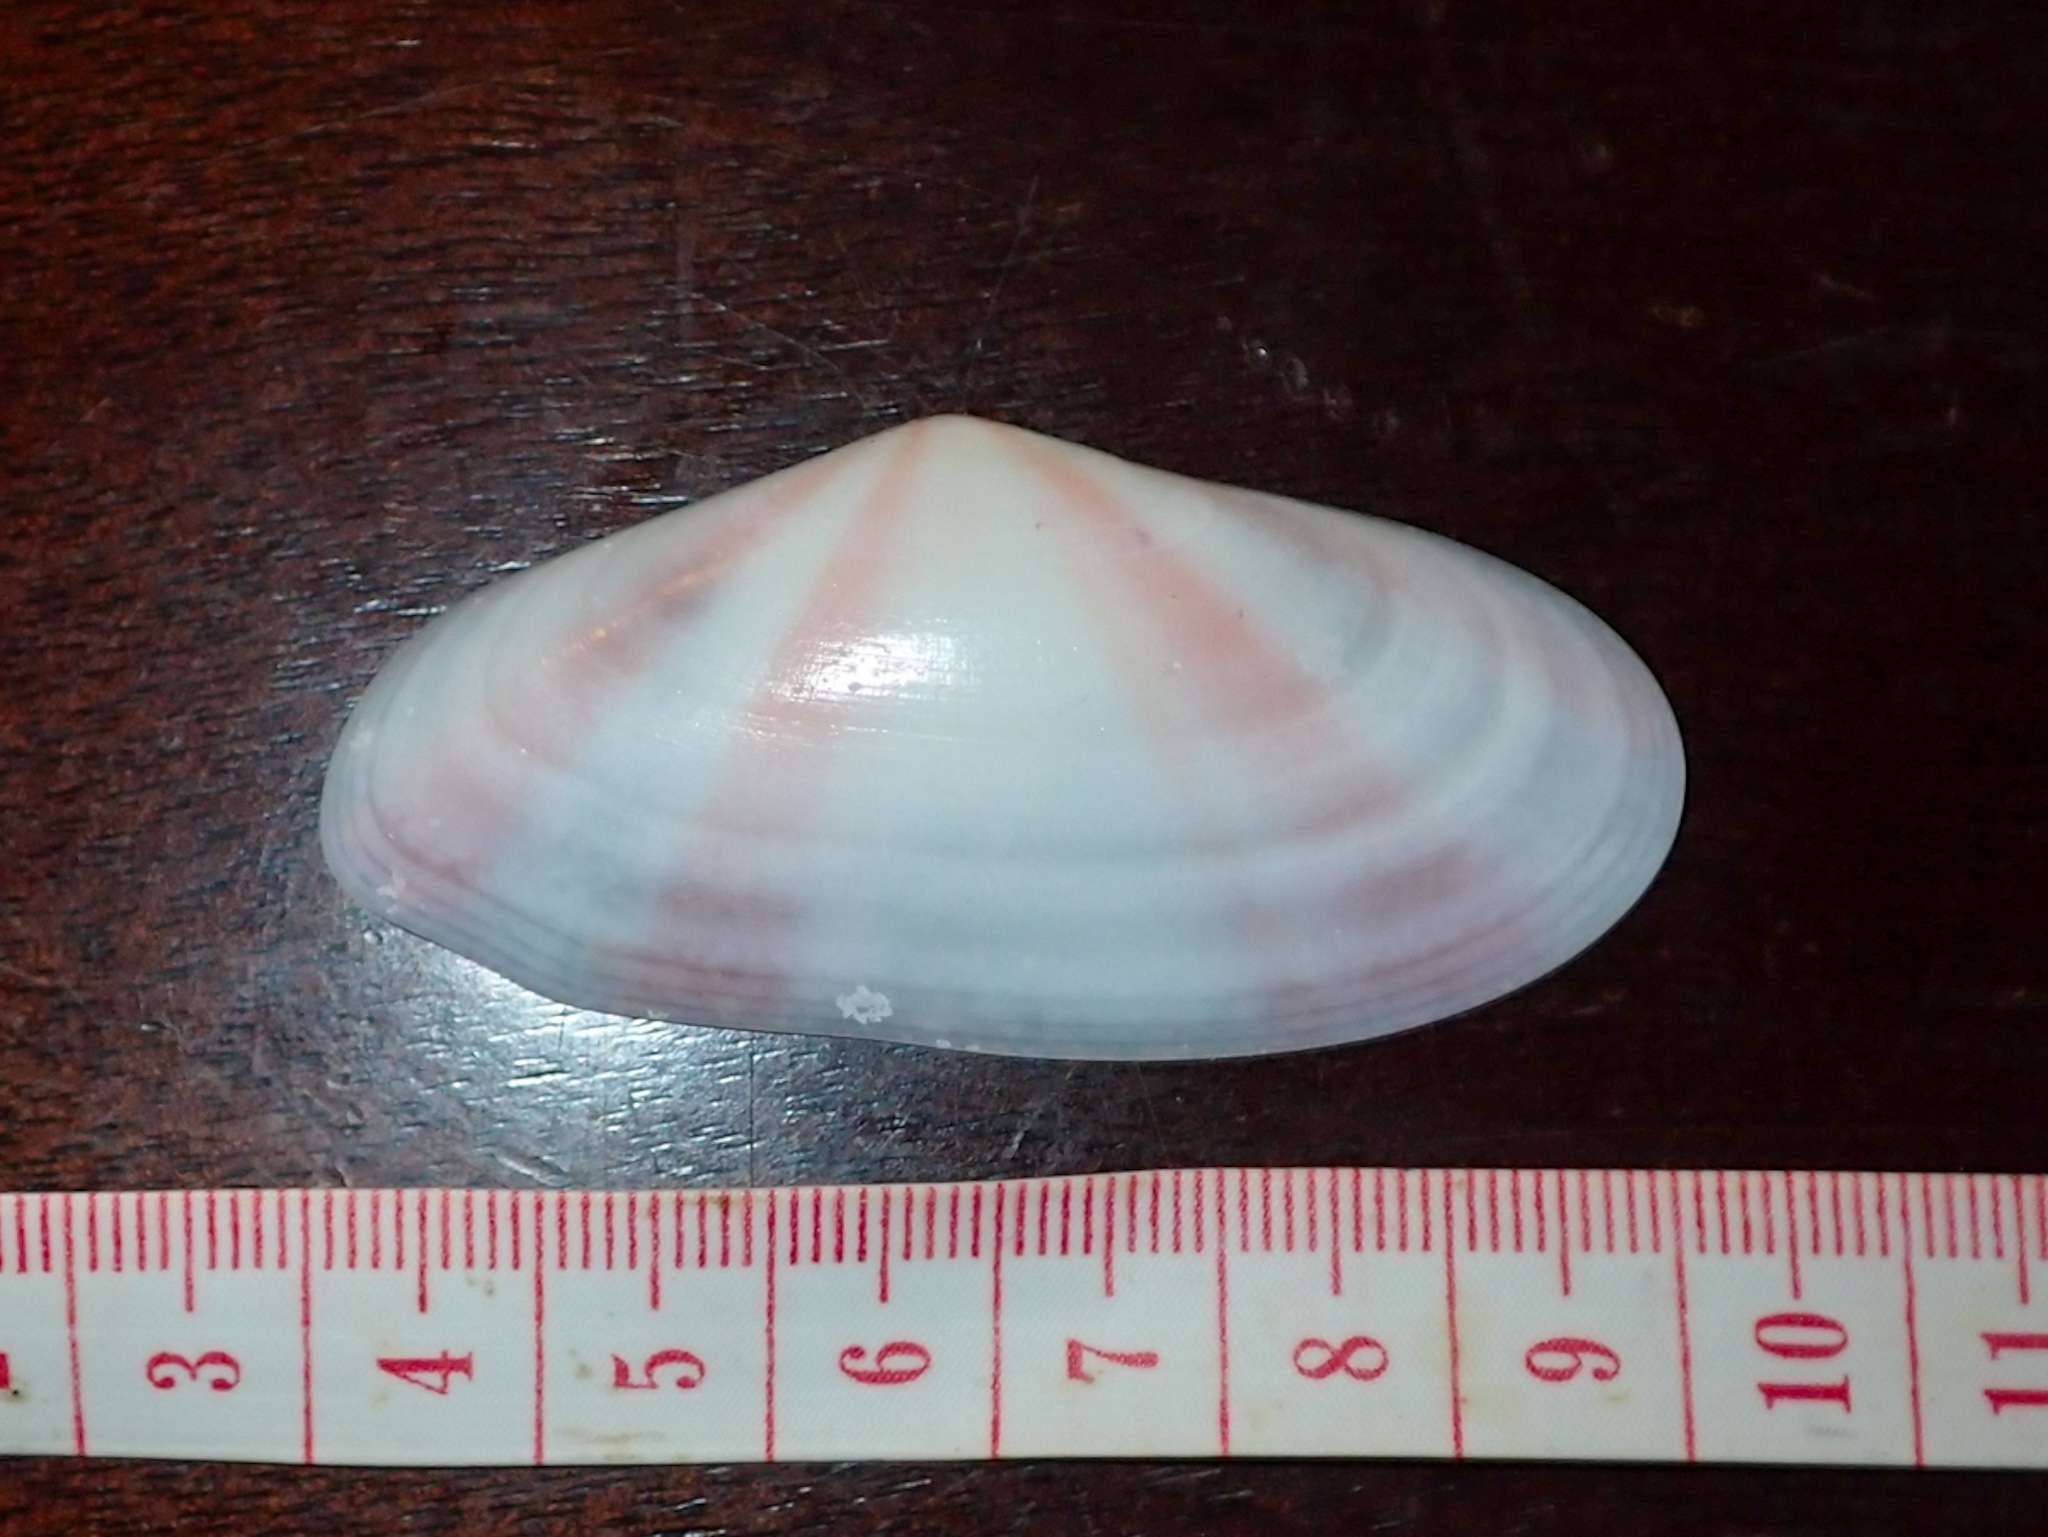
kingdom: Animalia
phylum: Mollusca
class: Bivalvia
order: Cardiida
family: Tellinidae
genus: Tellina
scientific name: Tellina radiata
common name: Sunrise tellin
